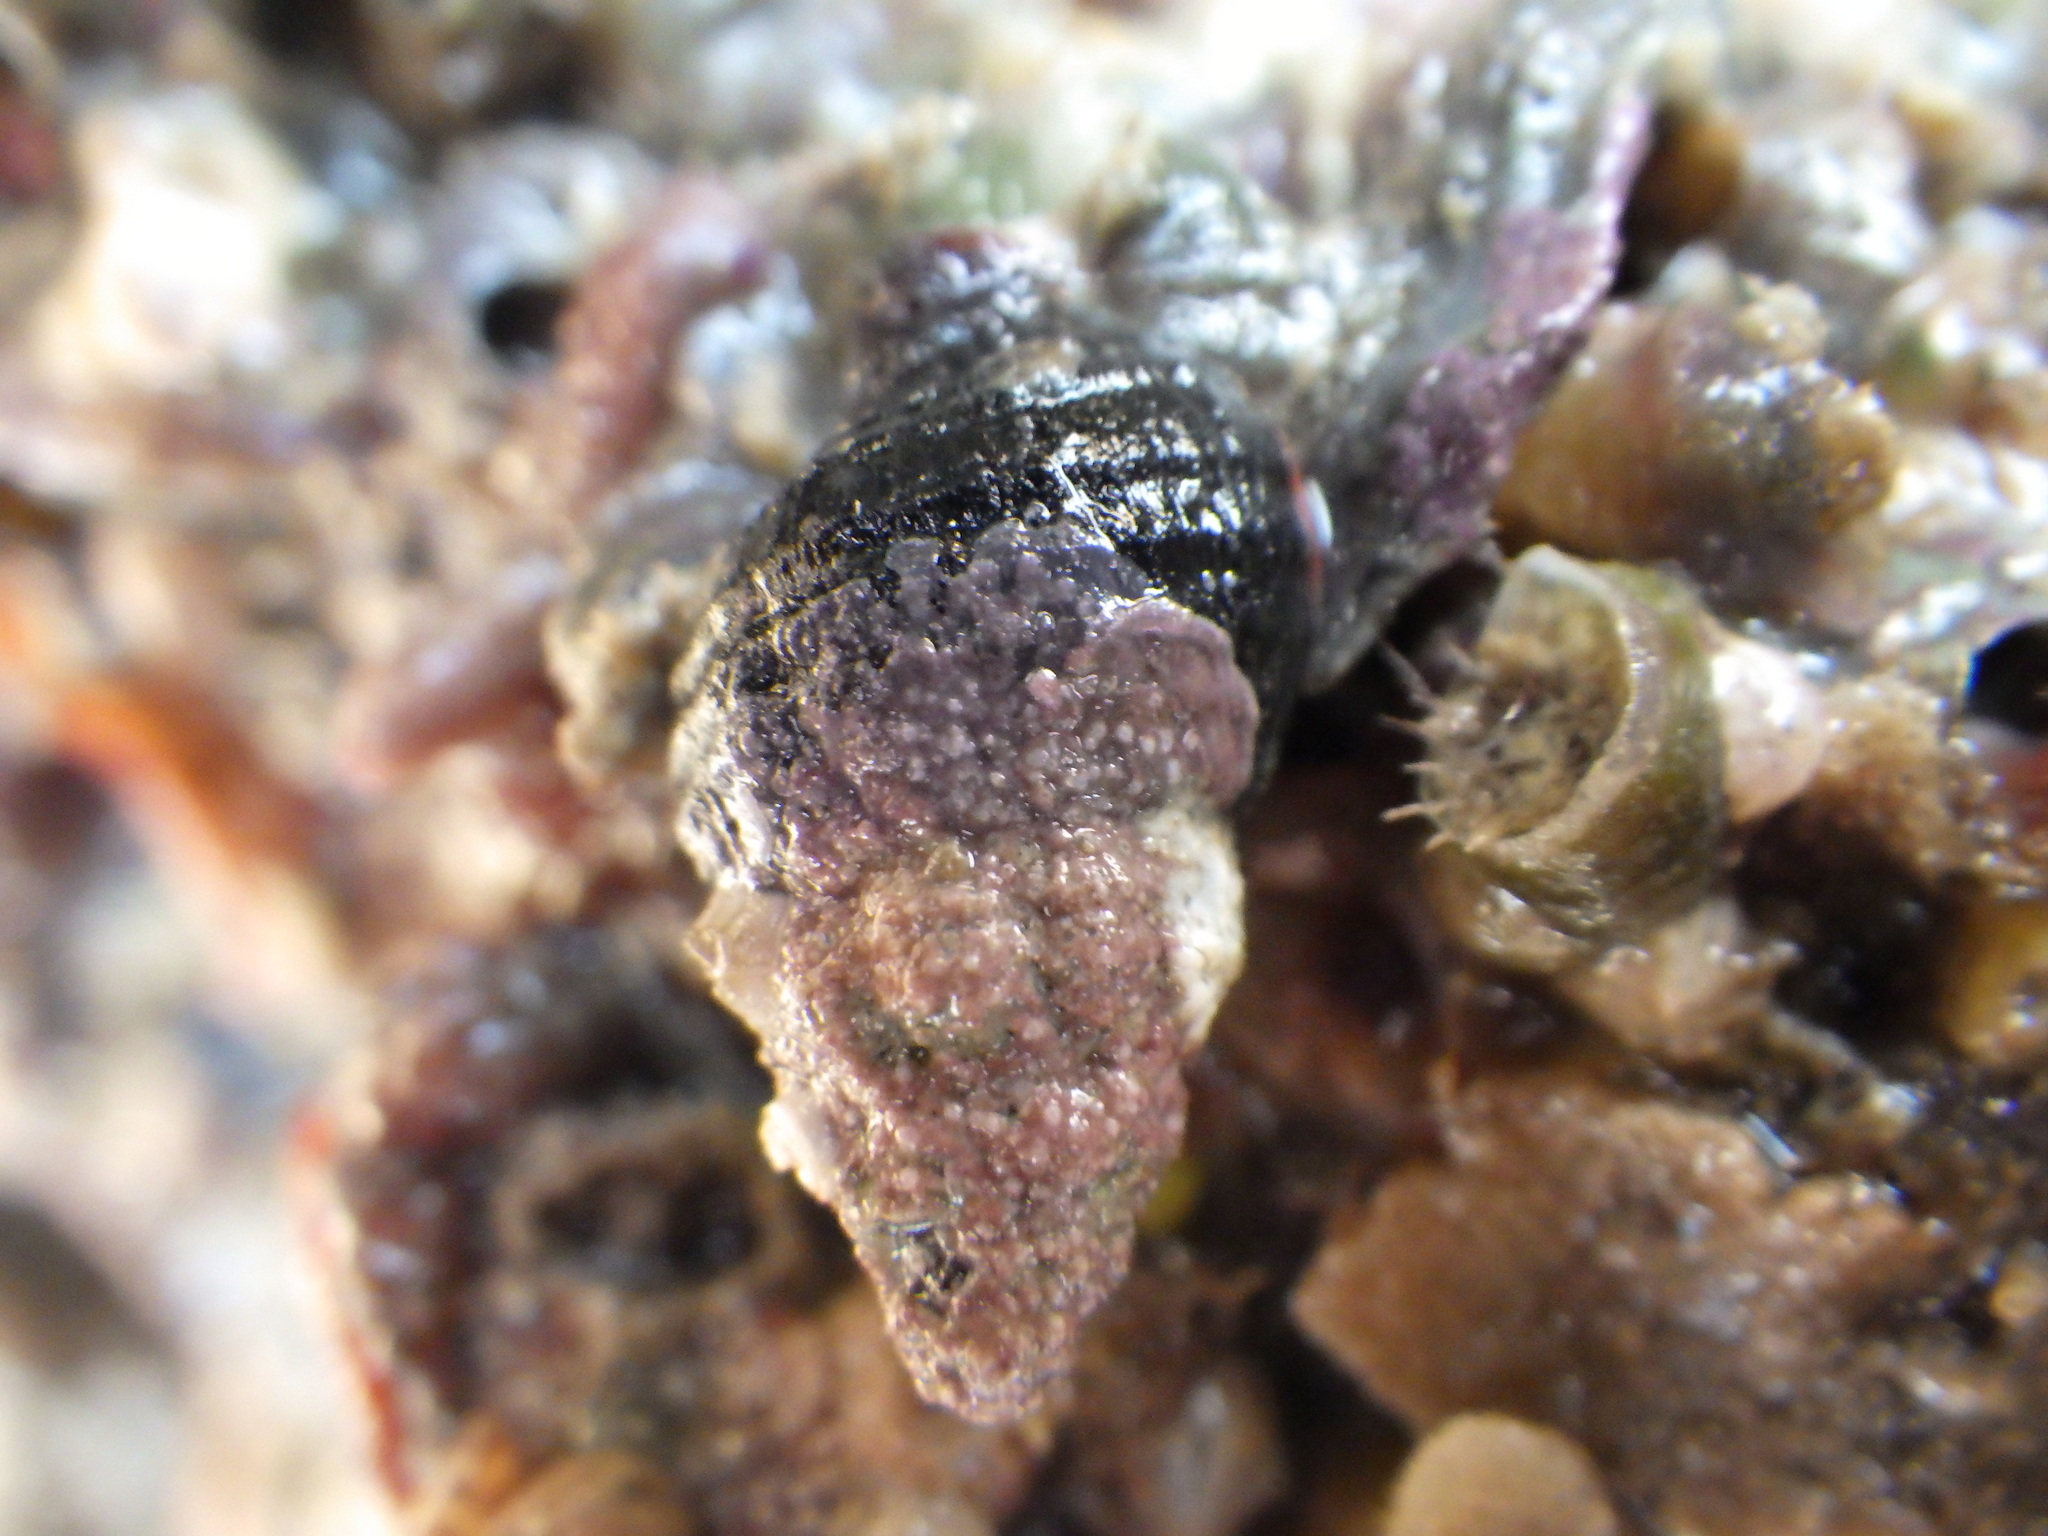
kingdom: Animalia
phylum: Mollusca
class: Gastropoda
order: Neogastropoda
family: Fasciolariidae
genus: Taron
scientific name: Taron dubius
